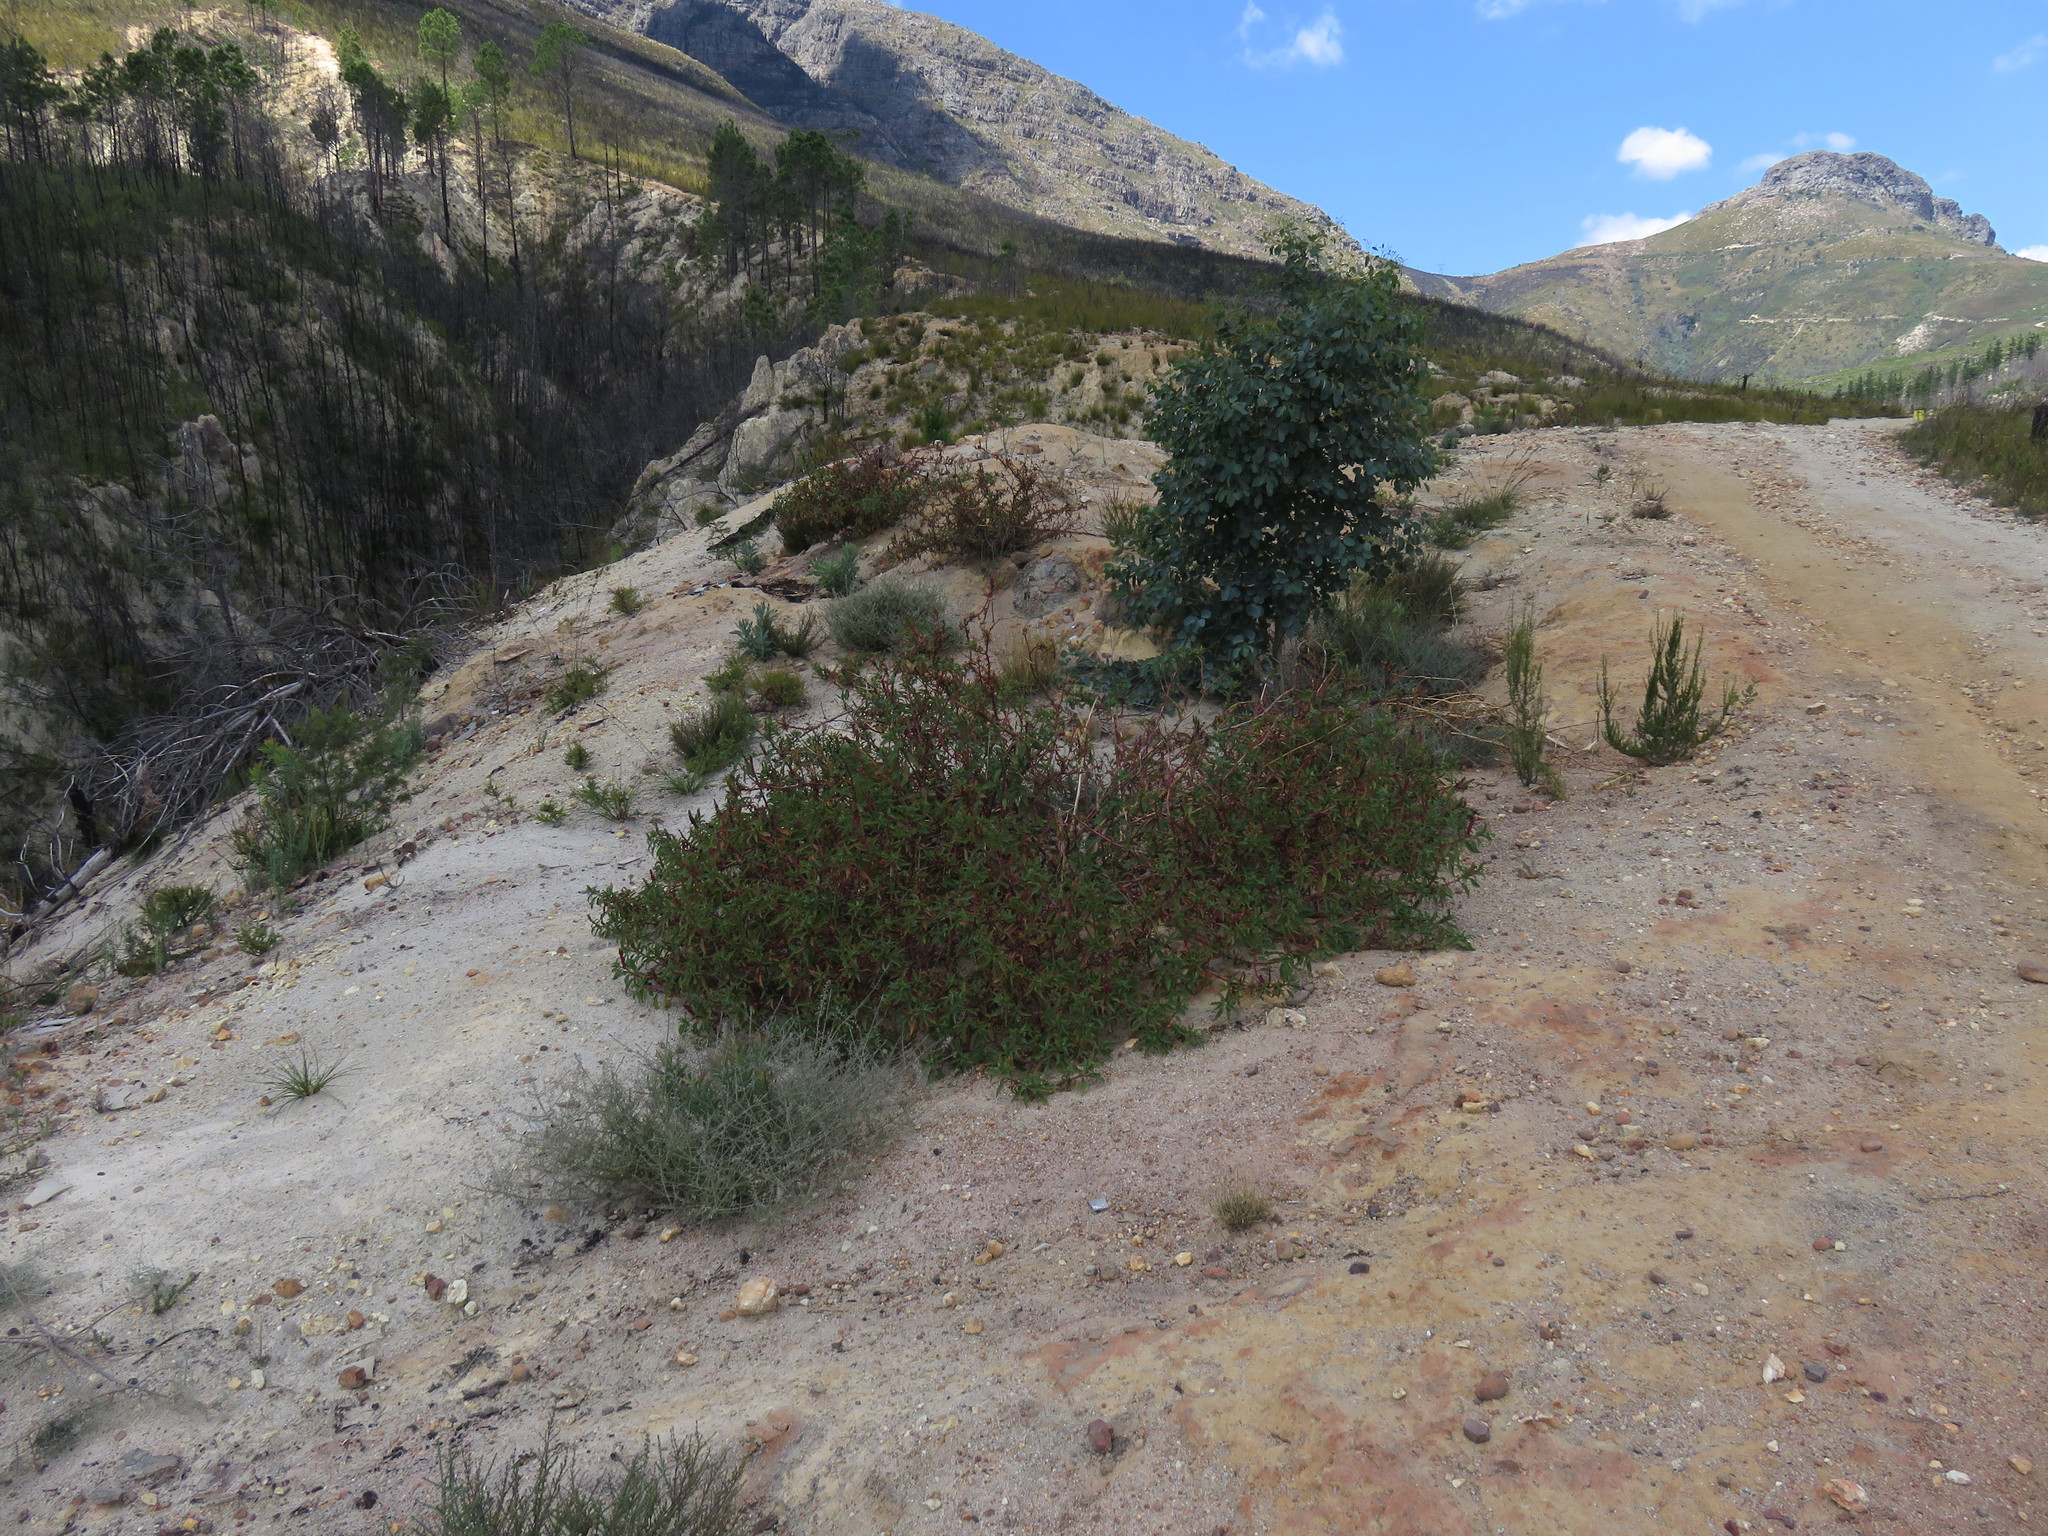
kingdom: Plantae
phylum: Tracheophyta
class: Magnoliopsida
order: Caryophyllales
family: Phytolaccaceae
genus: Phytolacca
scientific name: Phytolacca icosandra
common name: Button pokeweed
